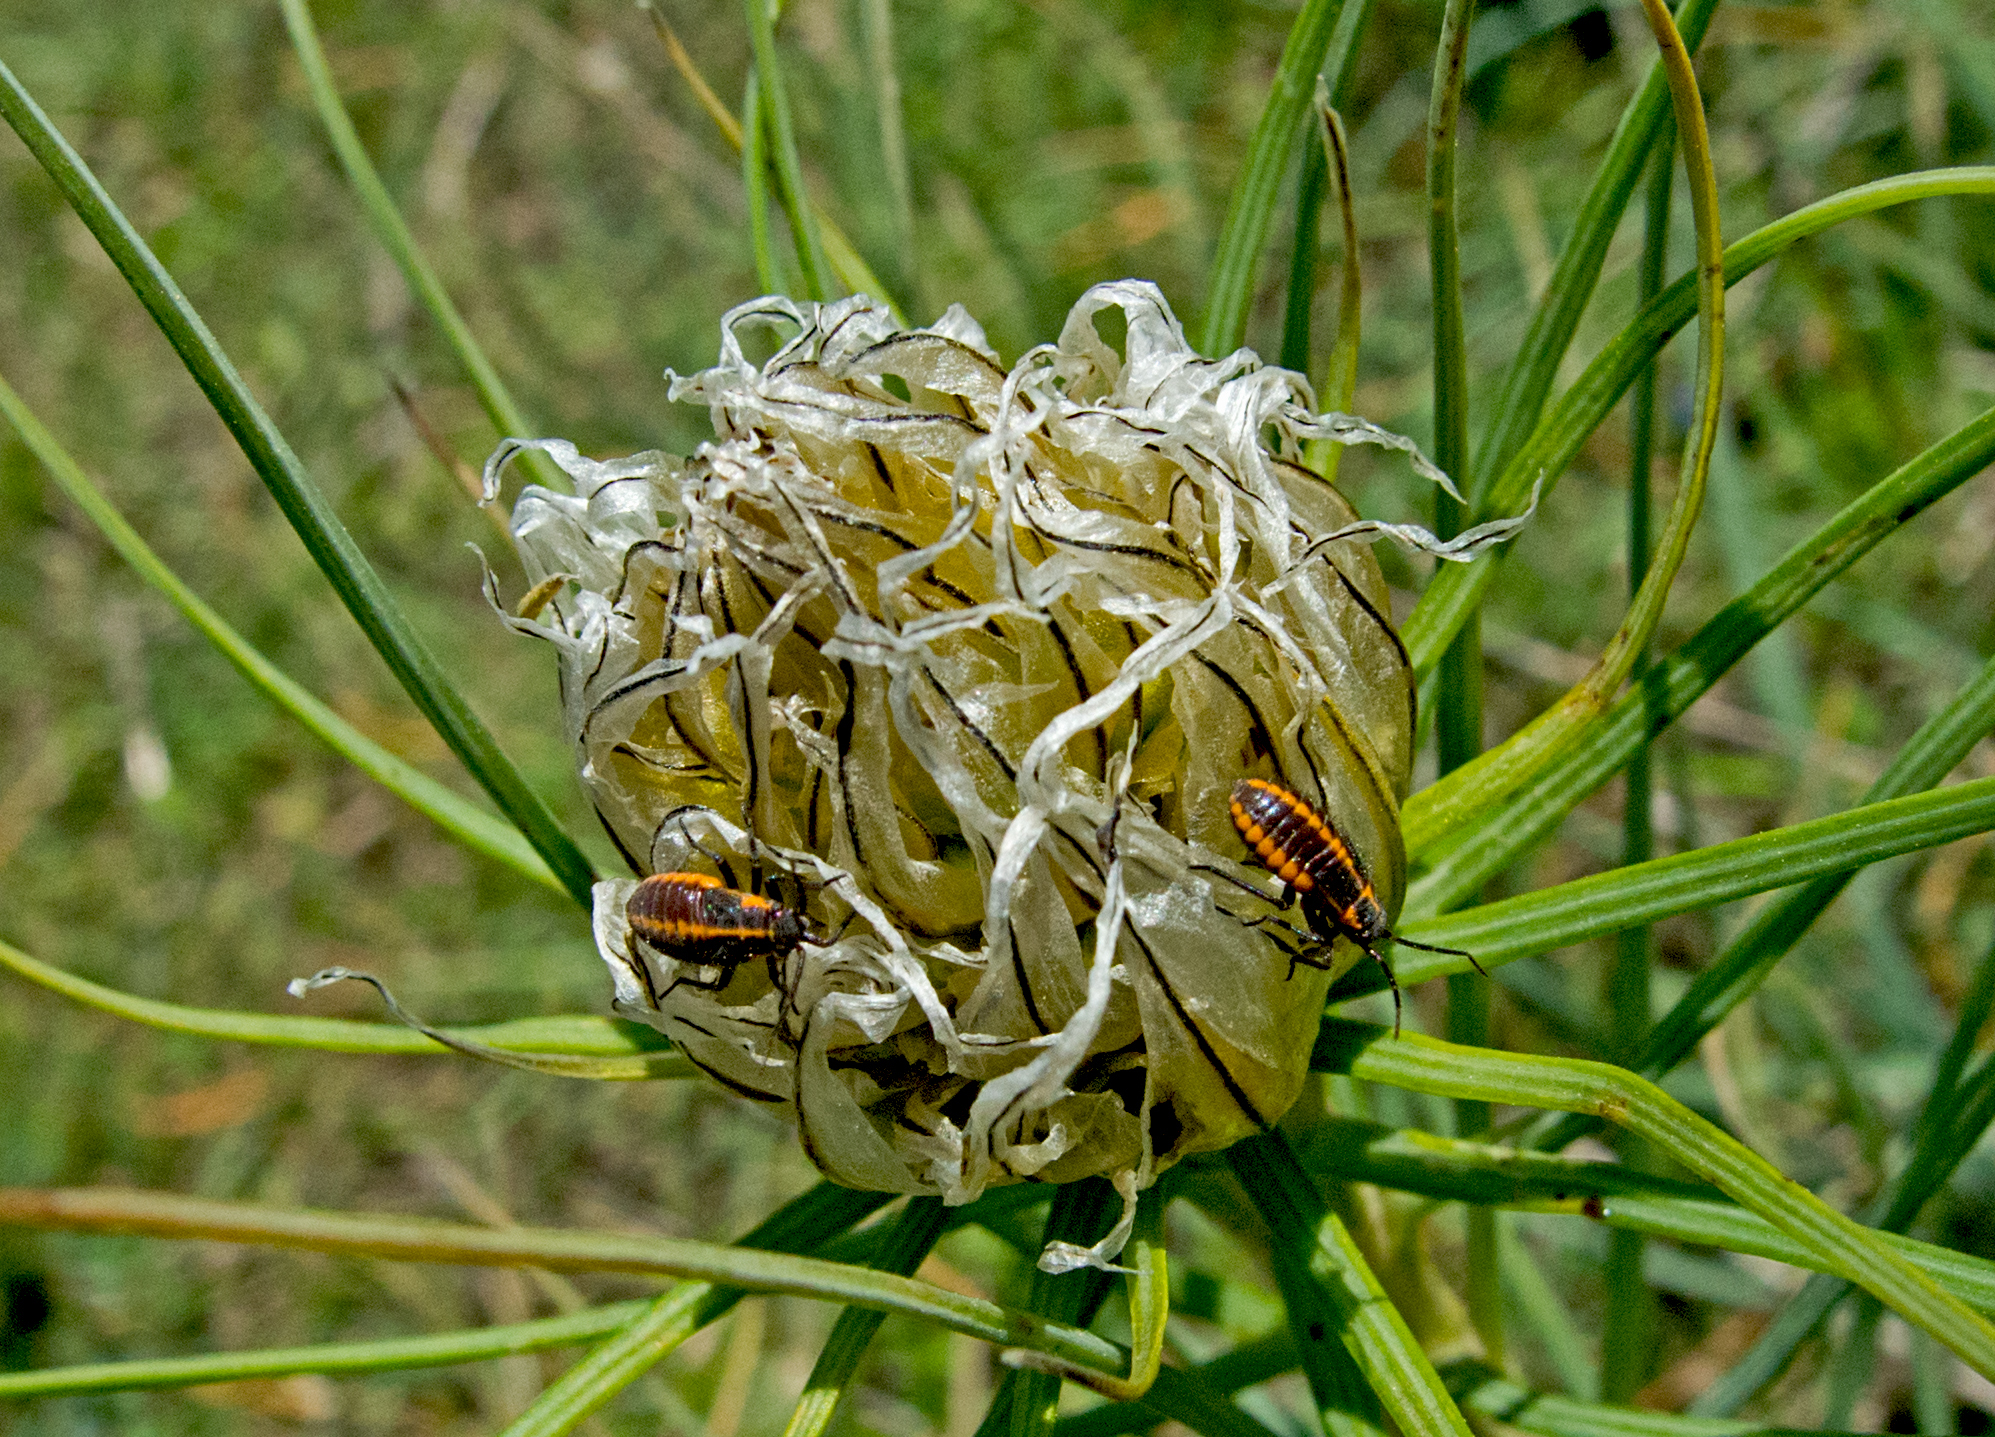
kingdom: Animalia
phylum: Arthropoda
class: Insecta
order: Hemiptera
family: Miridae
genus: Horistus
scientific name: Horistus infuscatus
